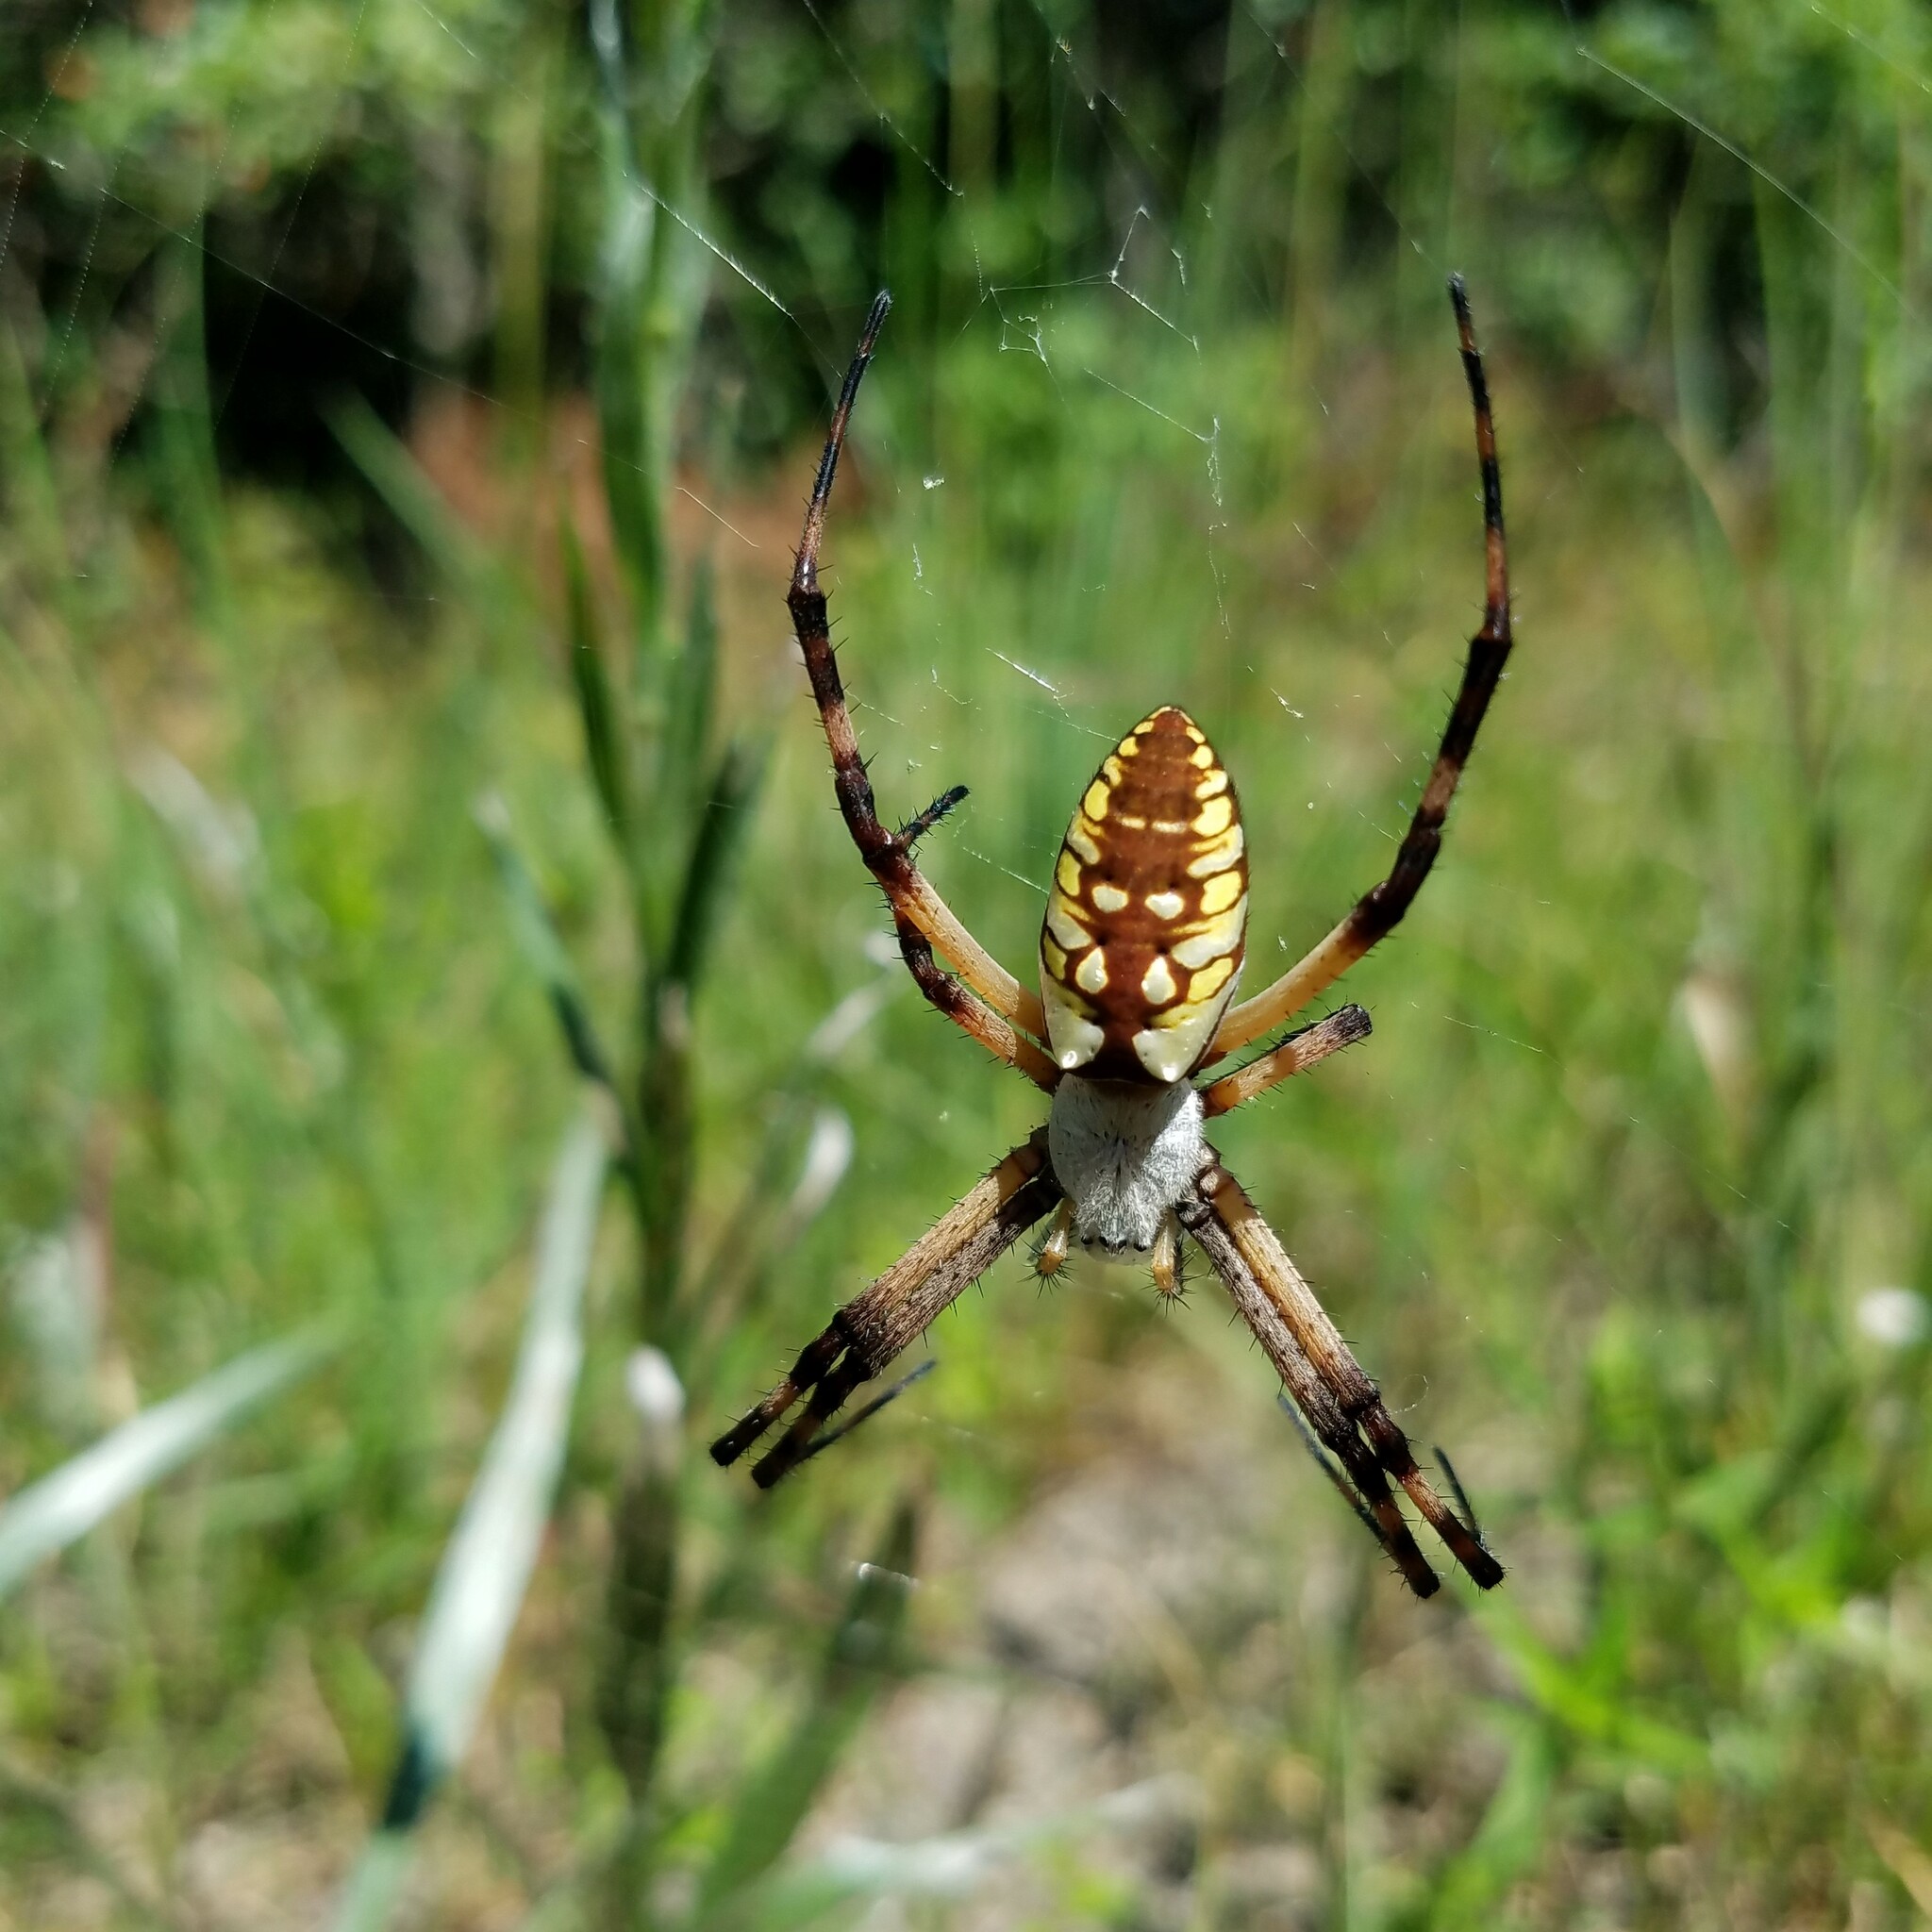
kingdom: Animalia
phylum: Arthropoda
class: Arachnida
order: Araneae
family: Araneidae
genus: Argiope
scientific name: Argiope aurantia
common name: Orb weavers
